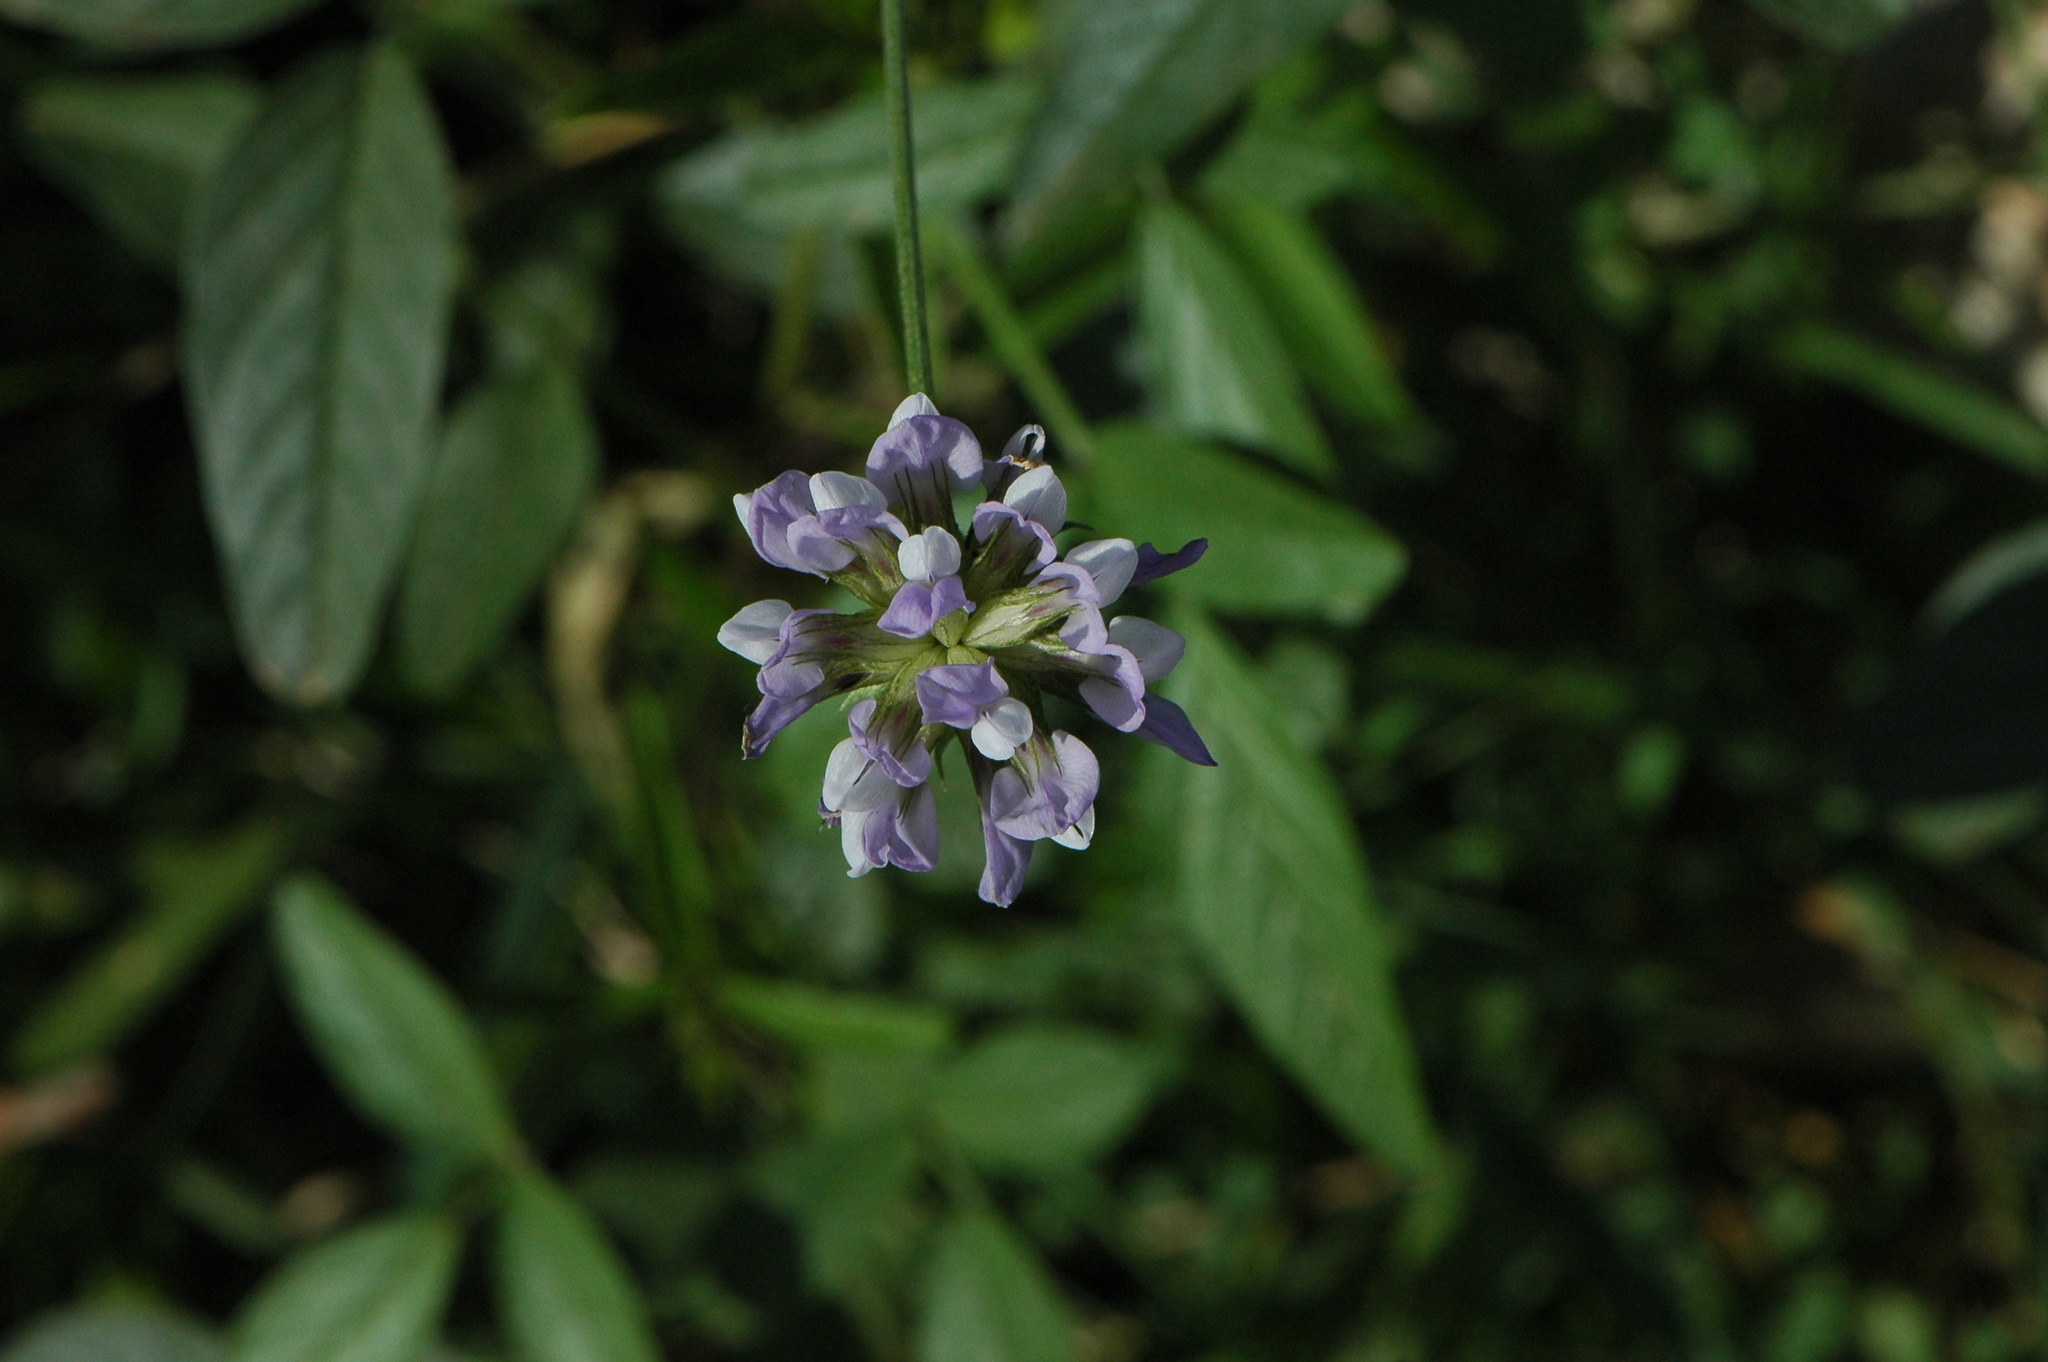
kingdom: Plantae
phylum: Tracheophyta
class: Magnoliopsida
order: Fabales
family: Fabaceae
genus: Bituminaria
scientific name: Bituminaria bituminosa
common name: Arabian pea
